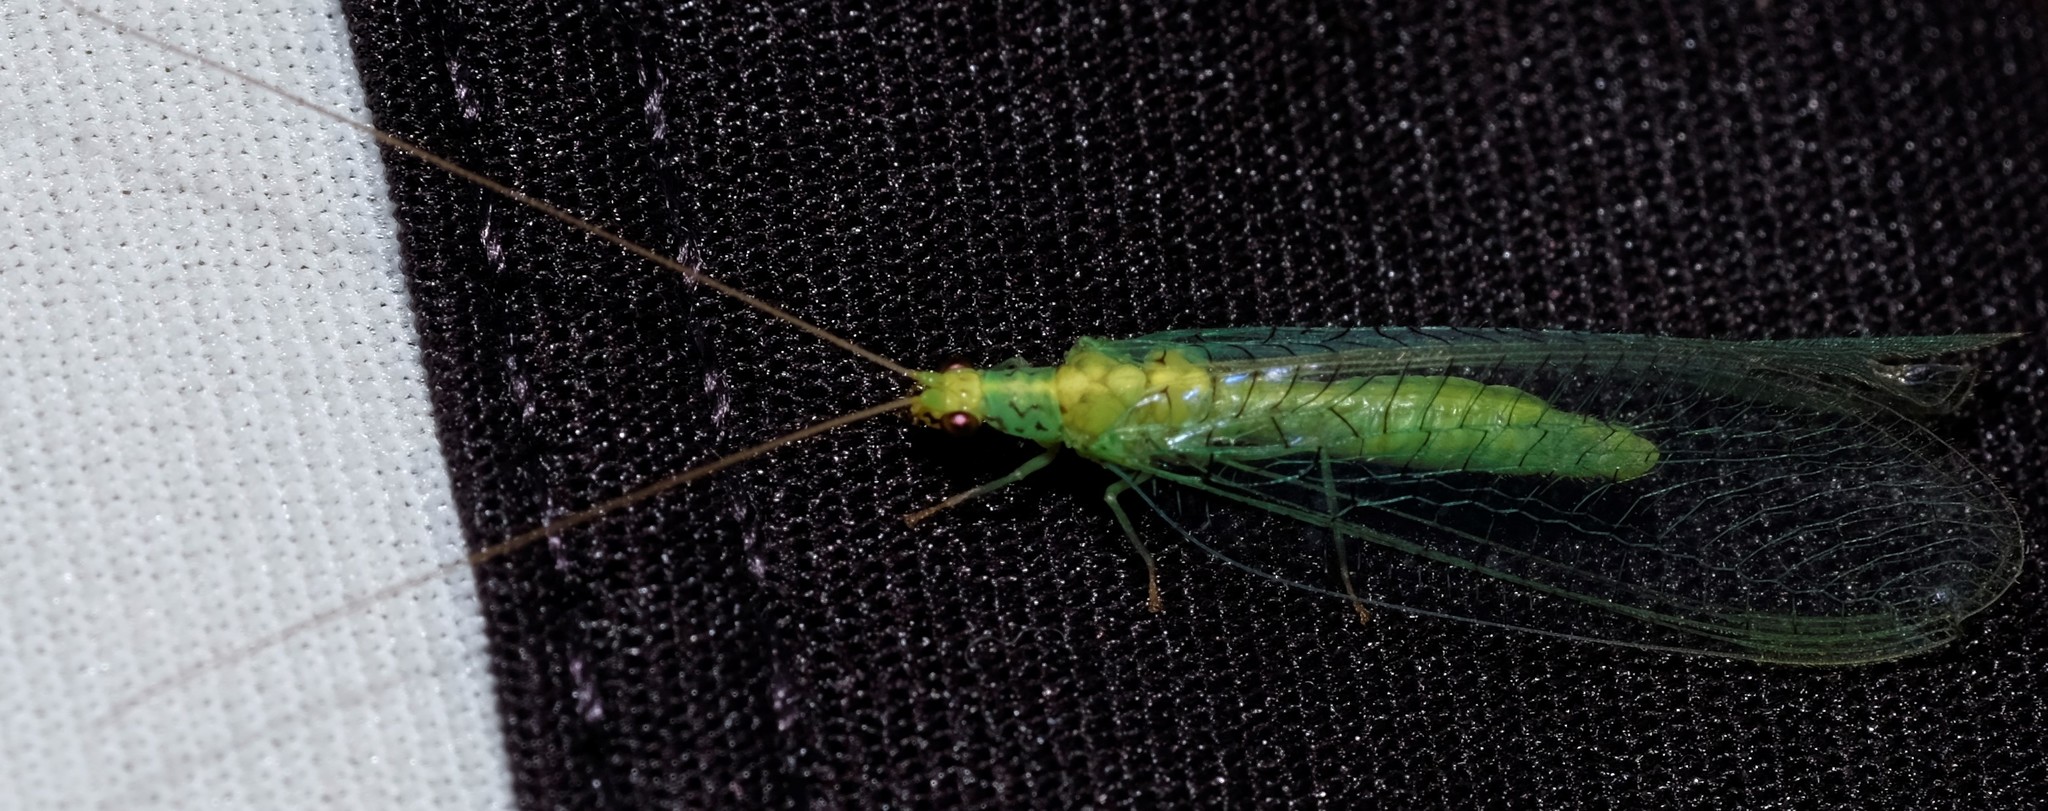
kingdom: Animalia
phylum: Arthropoda
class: Insecta
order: Neuroptera
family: Chrysopidae
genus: Pseudomallada
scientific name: Pseudomallada edwardsi
